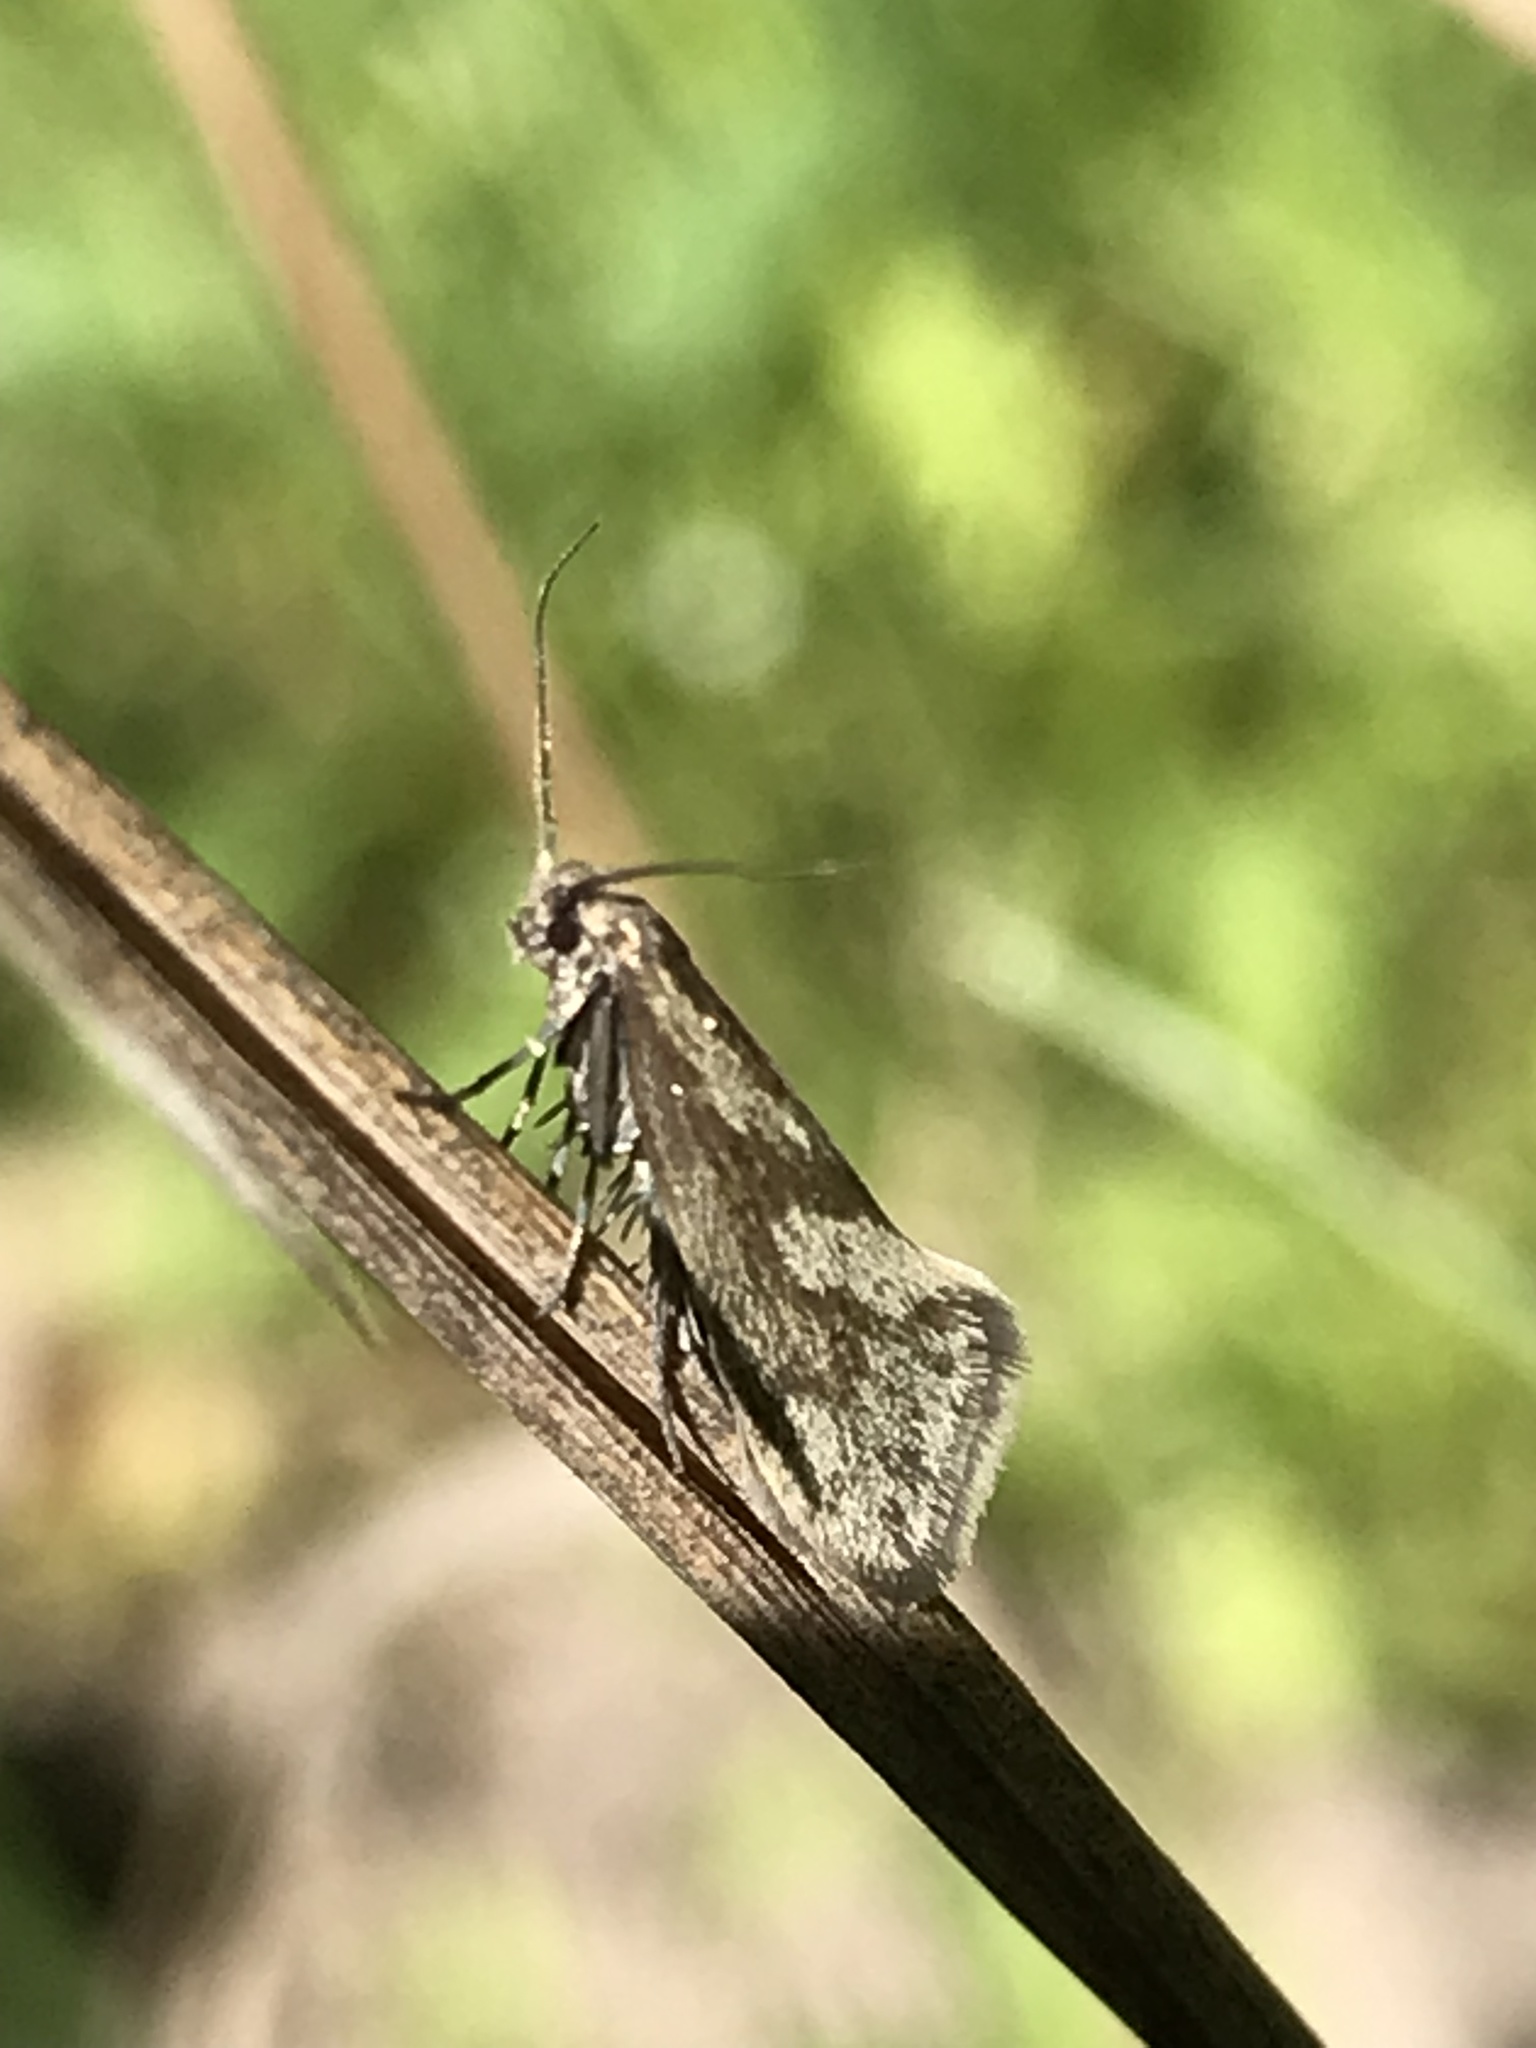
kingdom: Animalia
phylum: Arthropoda
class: Insecta
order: Lepidoptera
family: Prodoxidae
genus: Greya
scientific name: Greya obscura
